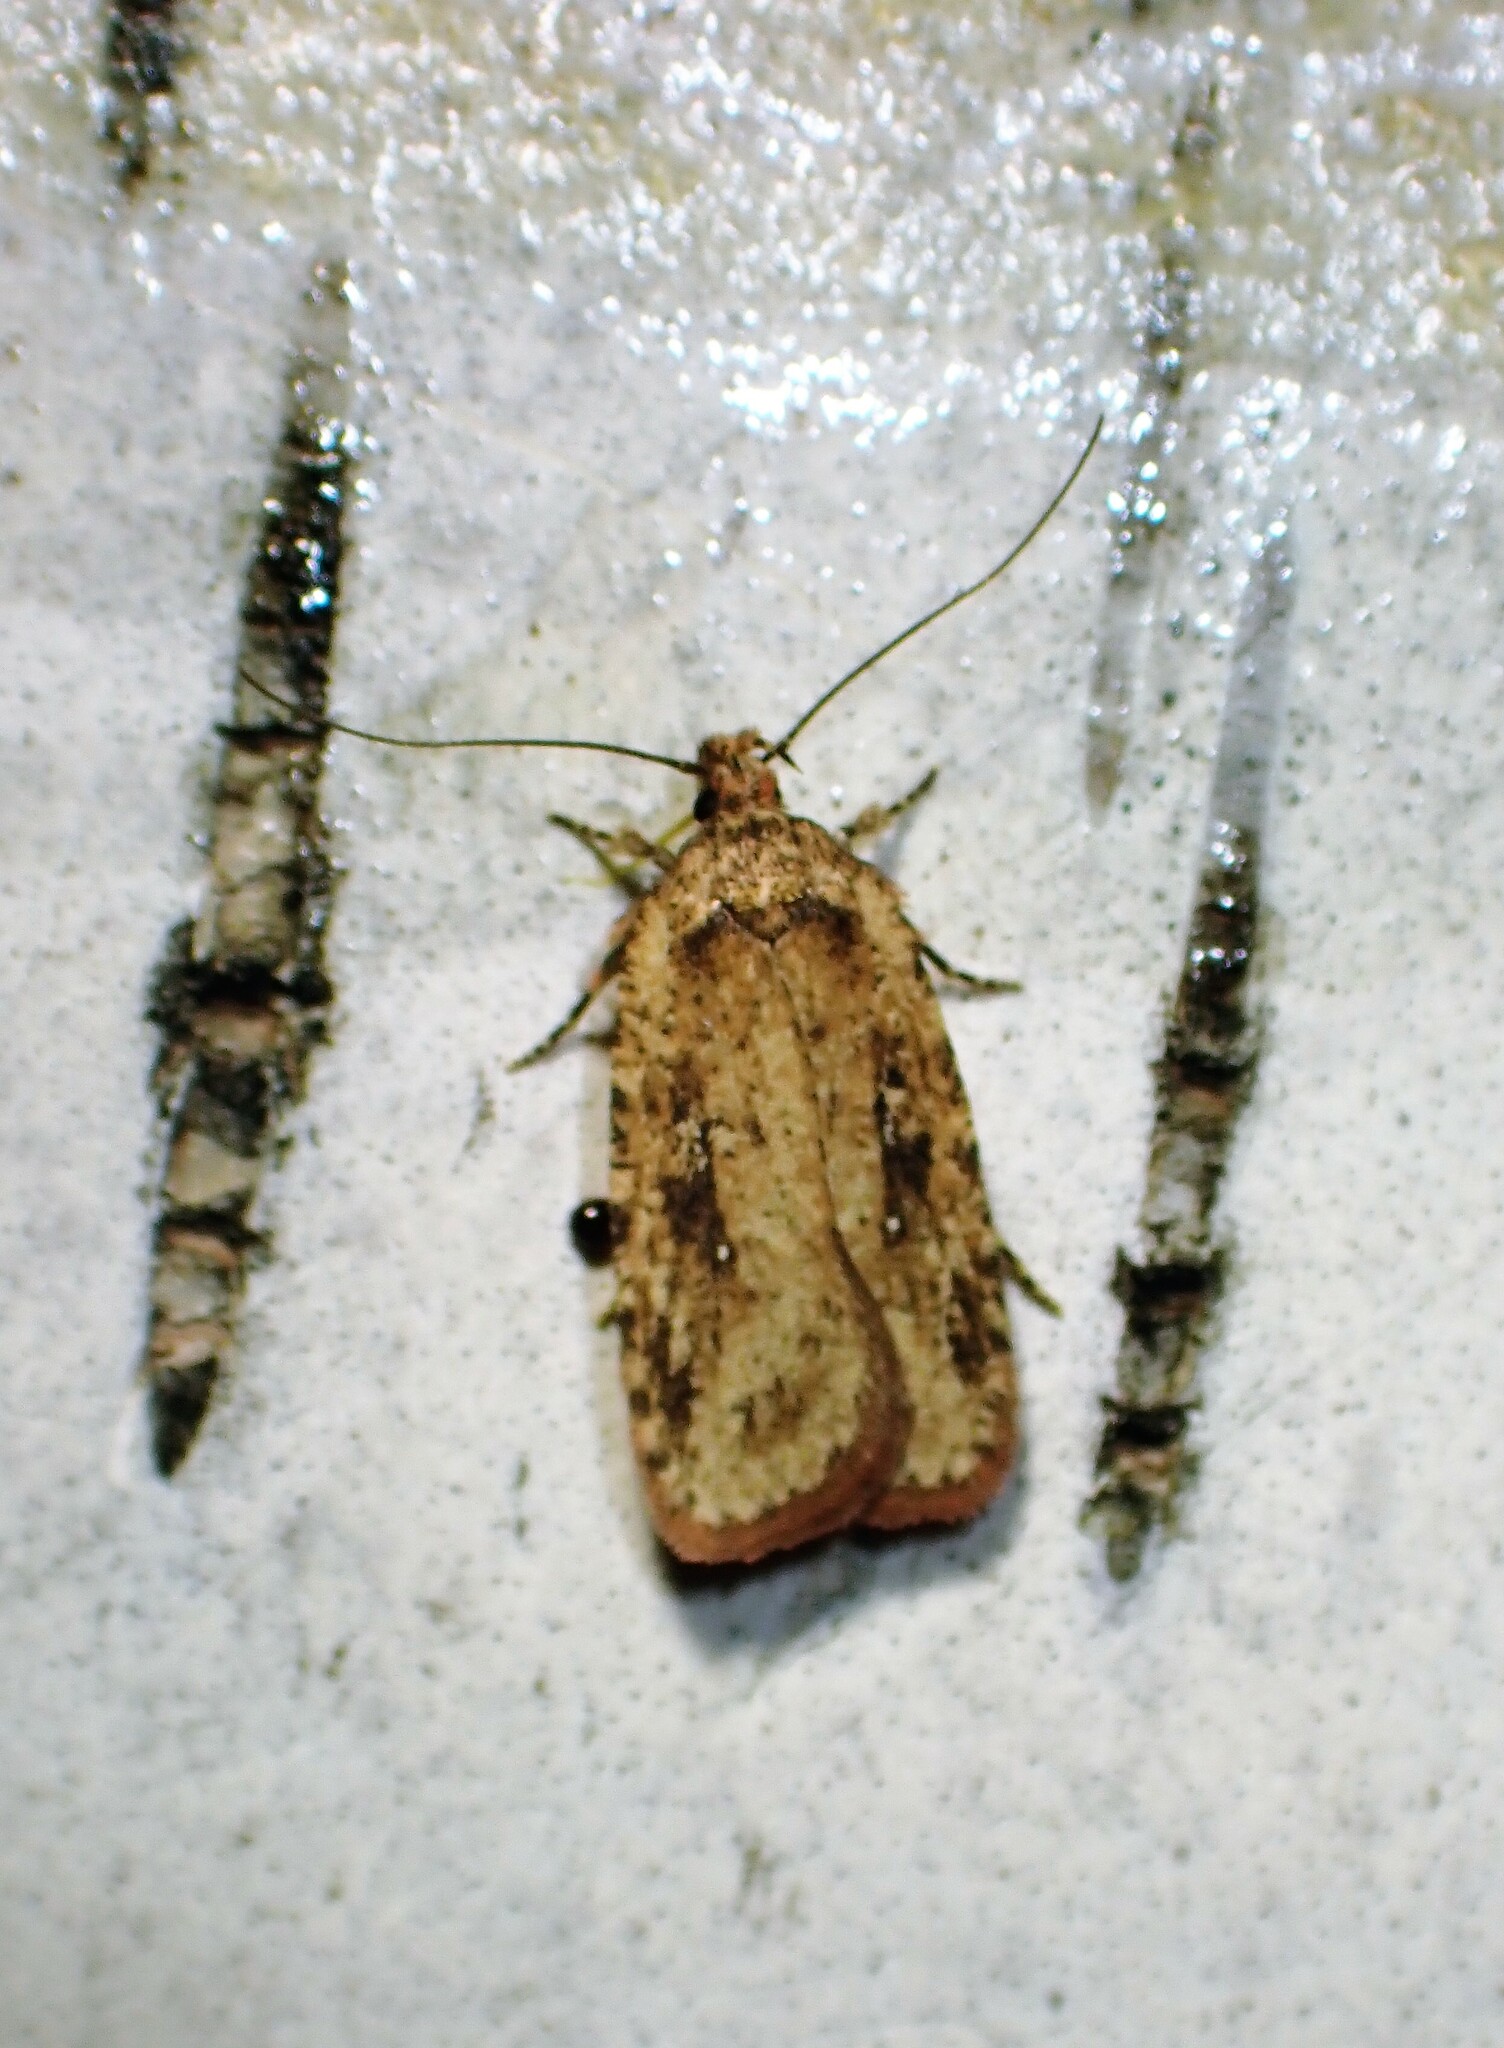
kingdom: Animalia
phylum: Arthropoda
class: Insecta
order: Lepidoptera
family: Depressariidae
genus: Agonopterix
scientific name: Agonopterix pulvipennella
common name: Goldenrod leafffolder
